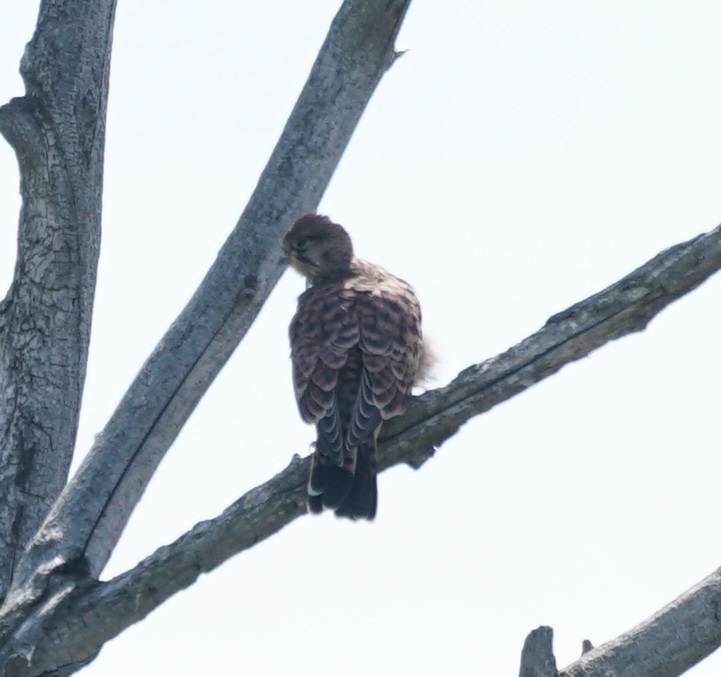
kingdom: Animalia
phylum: Chordata
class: Aves
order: Falconiformes
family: Falconidae
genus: Falco
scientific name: Falco tinnunculus
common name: Common kestrel
